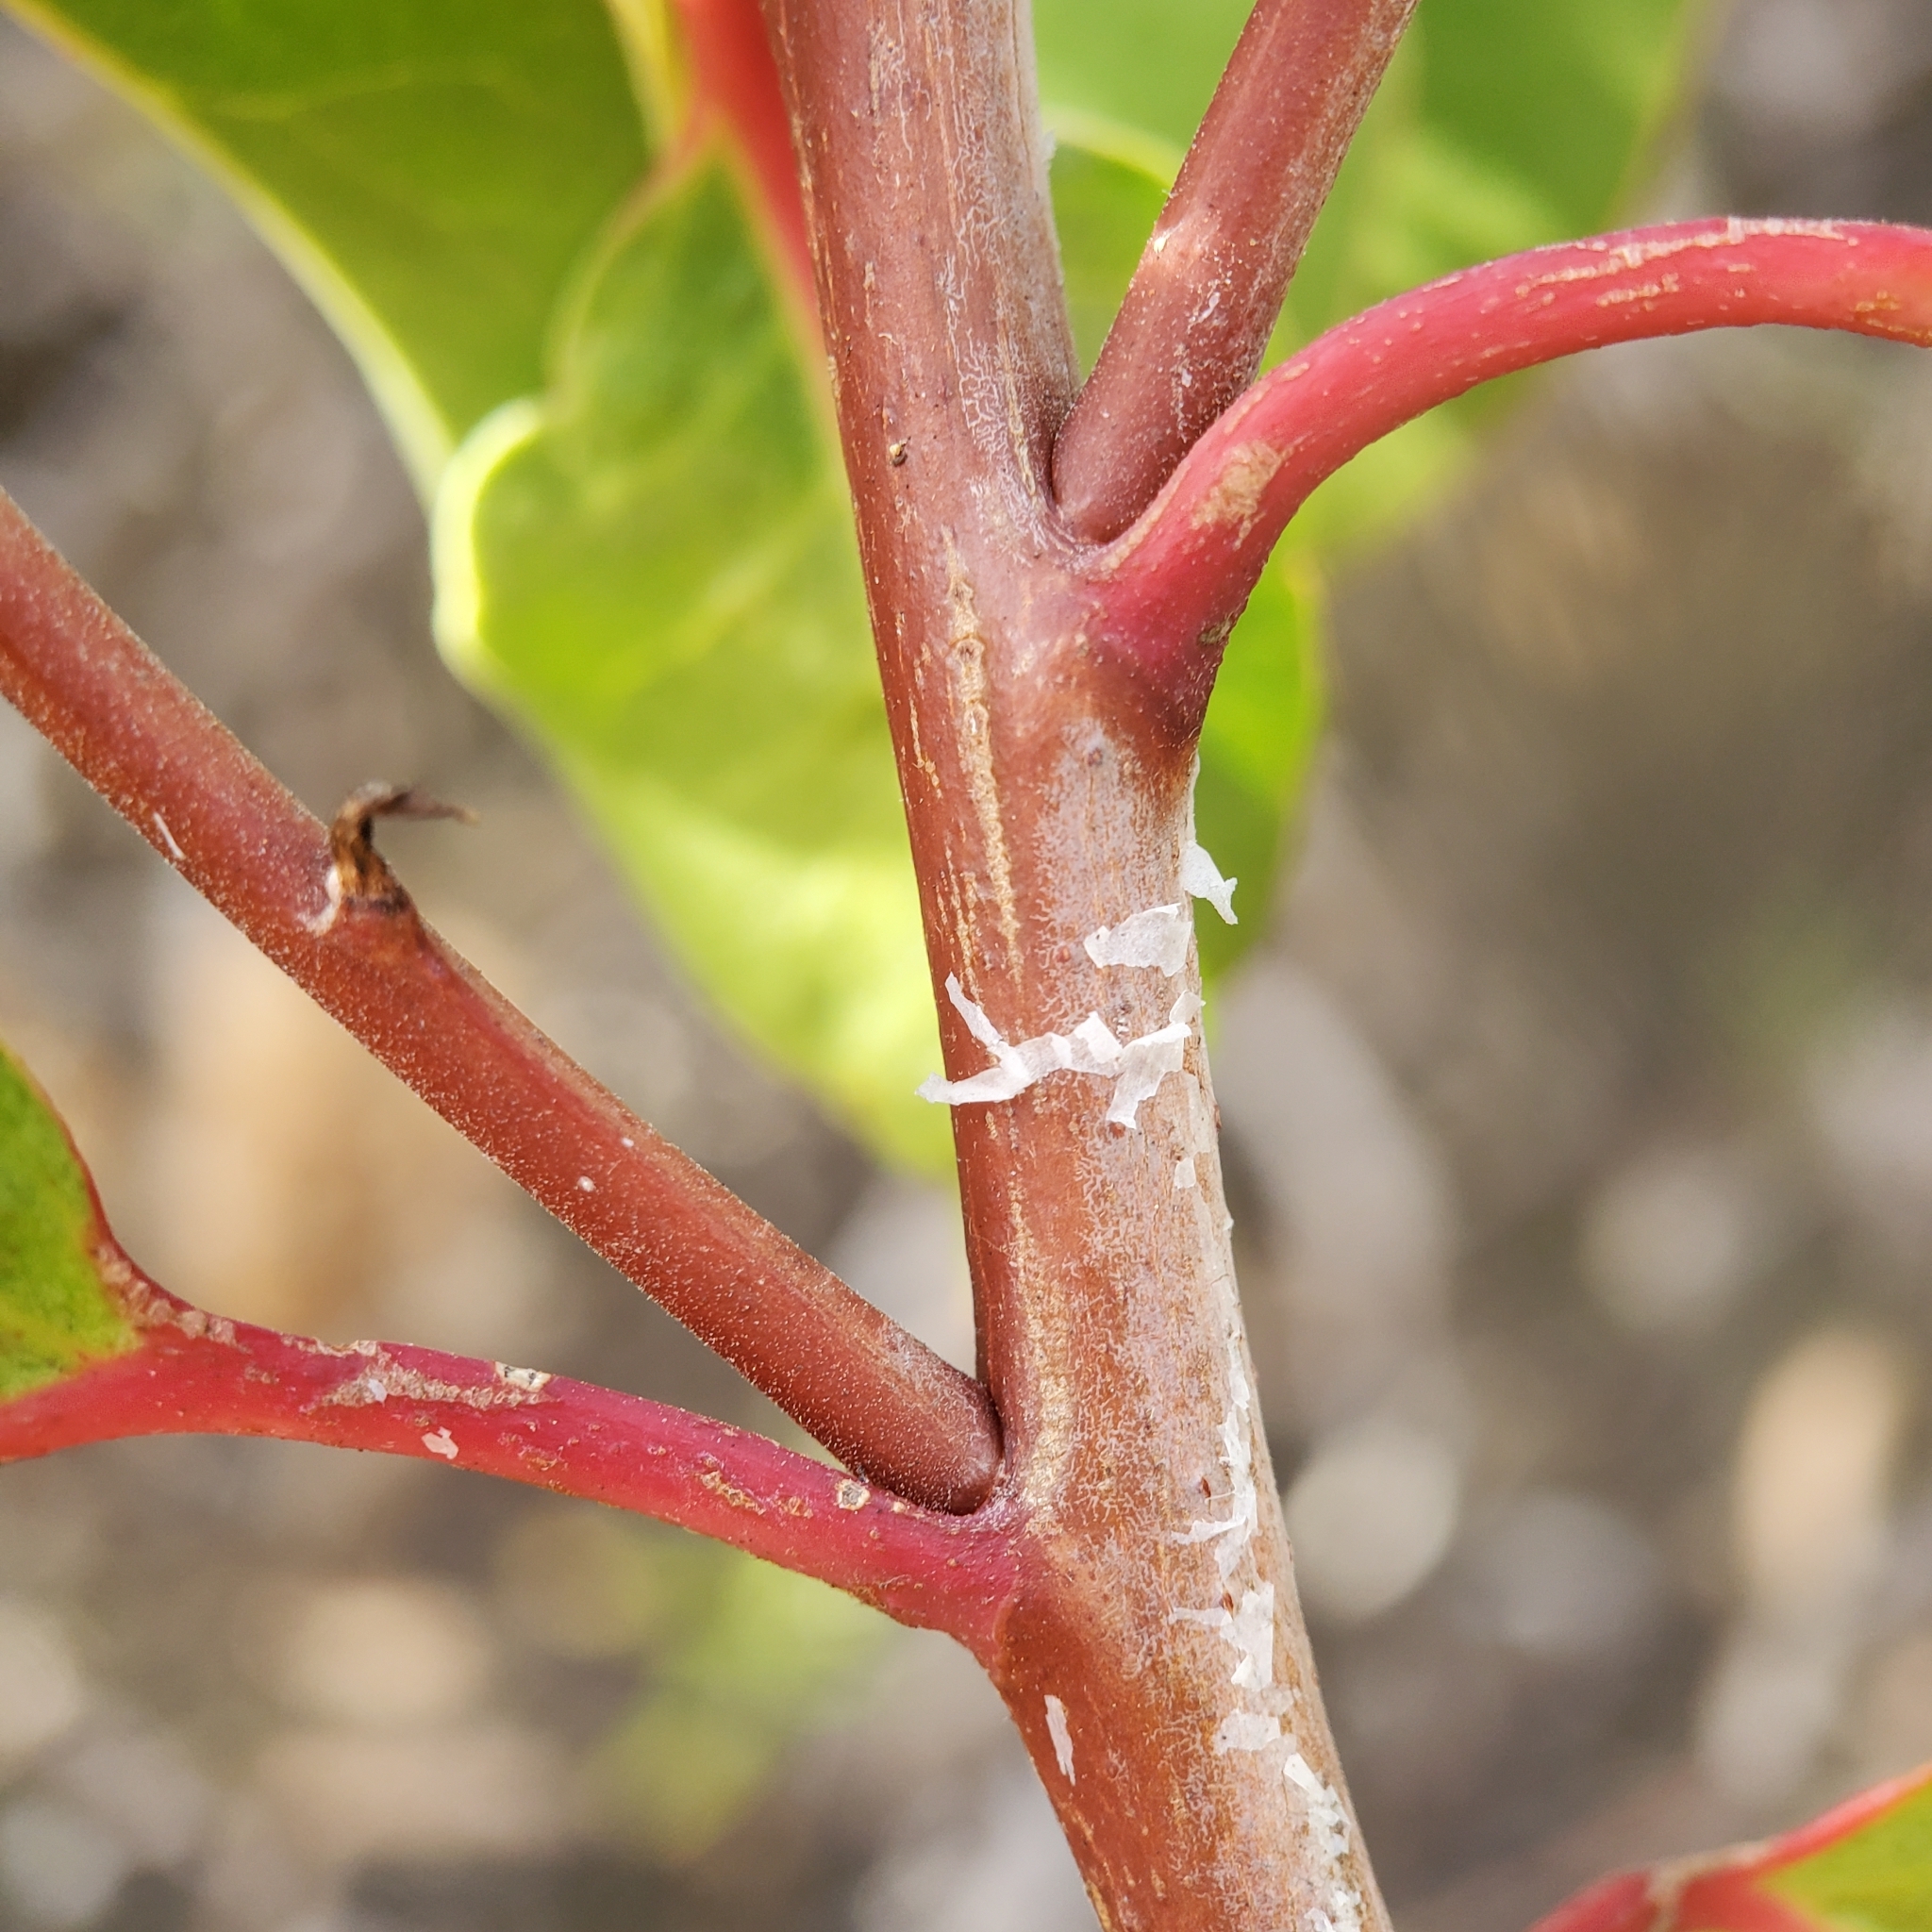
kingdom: Plantae
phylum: Tracheophyta
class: Magnoliopsida
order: Sapindales
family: Anacardiaceae
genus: Rhus
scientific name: Rhus ovata
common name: Sugar sumac
